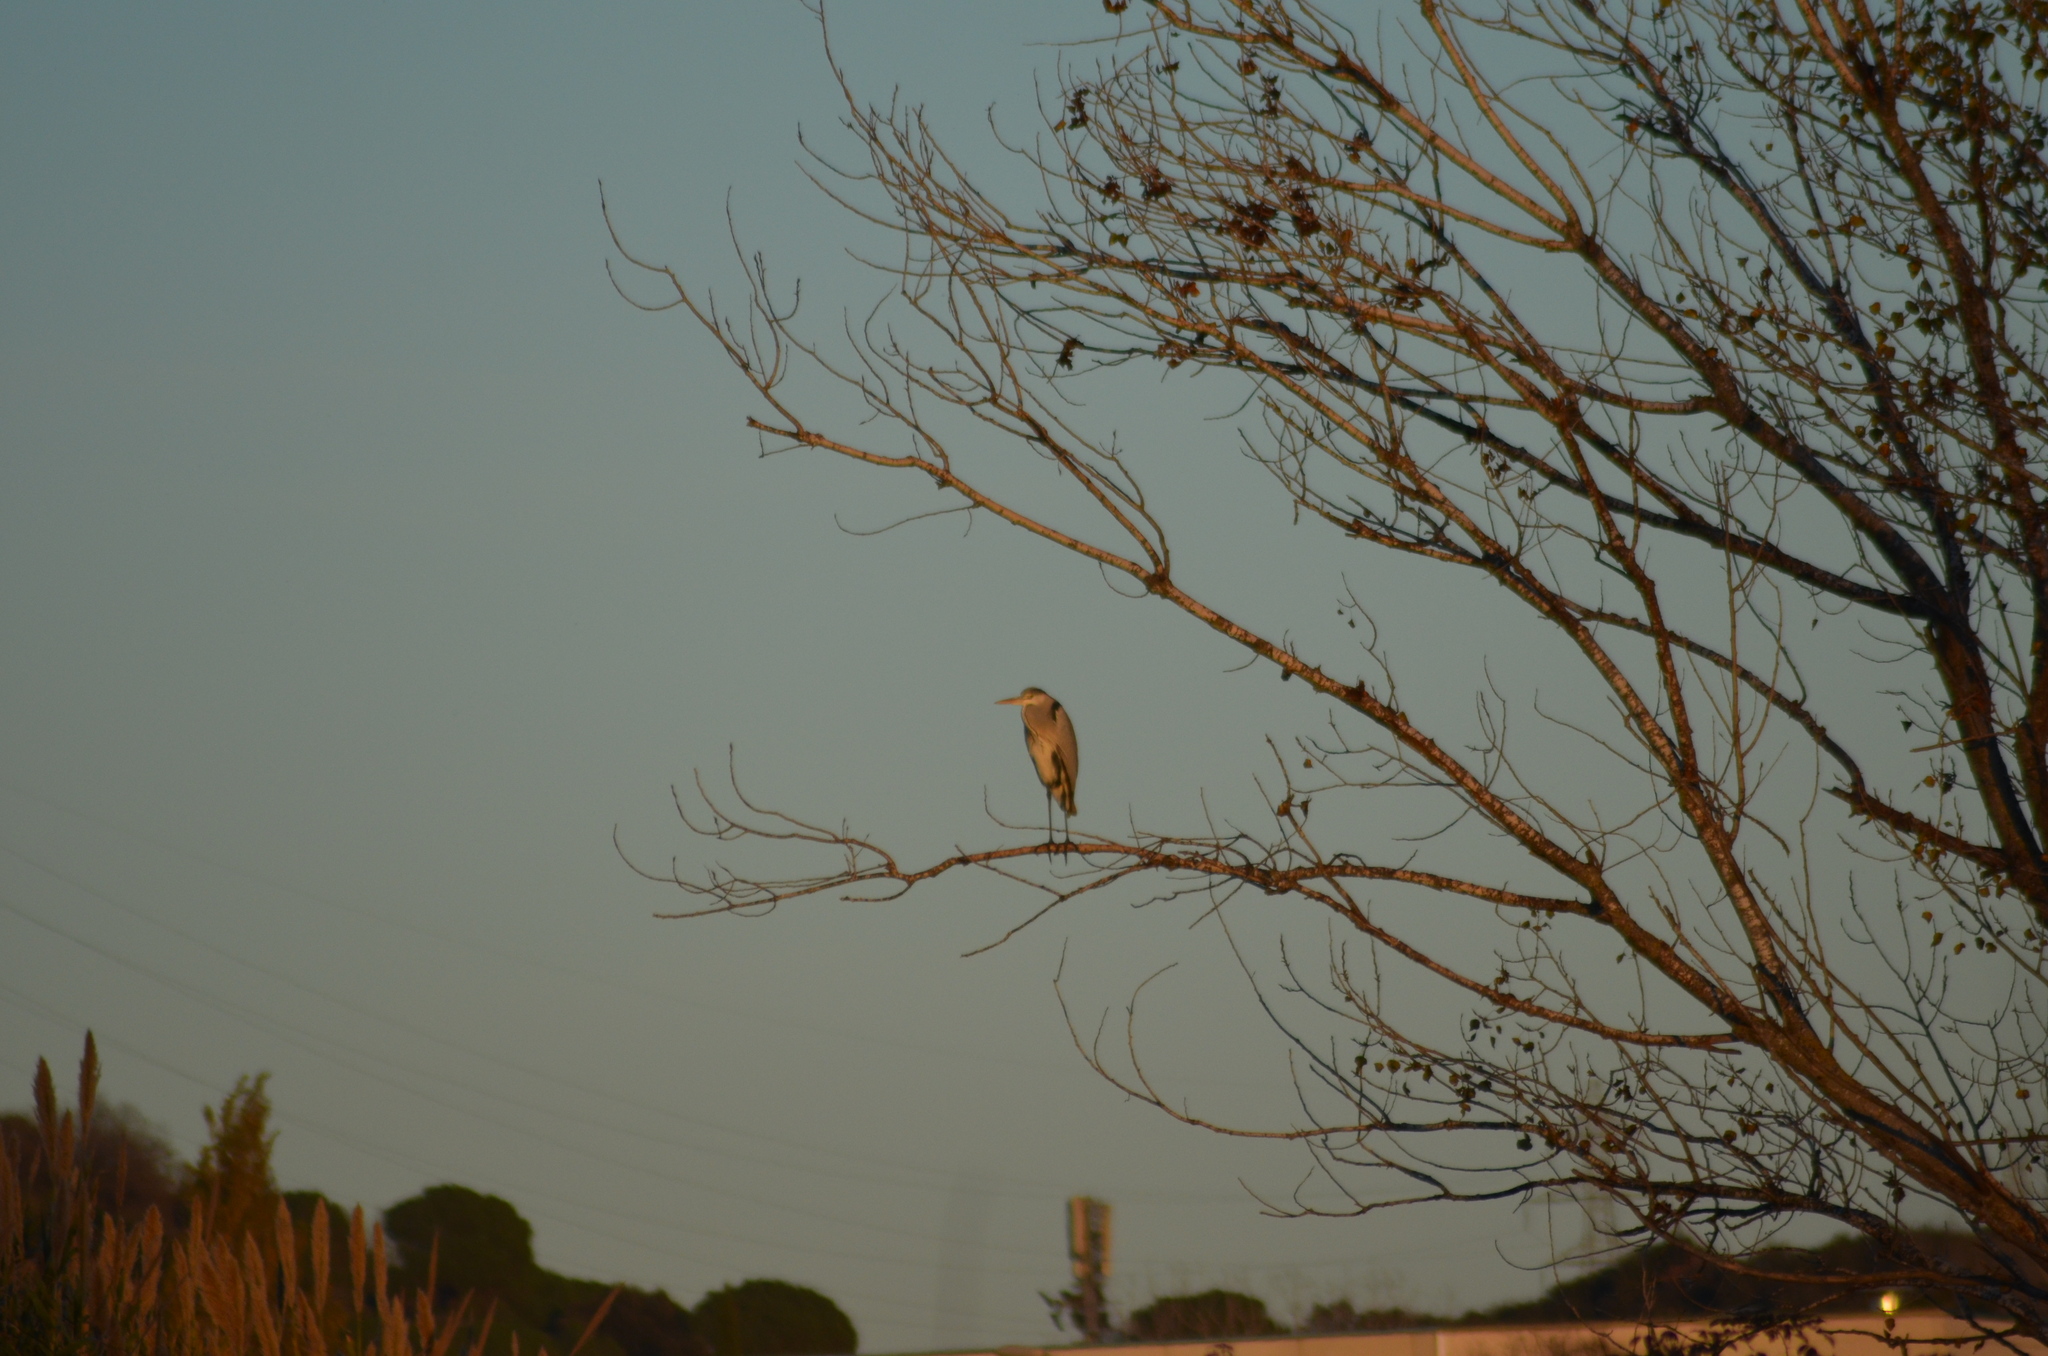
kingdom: Animalia
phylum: Chordata
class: Aves
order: Pelecaniformes
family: Ardeidae
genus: Ardea
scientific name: Ardea cinerea
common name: Grey heron
